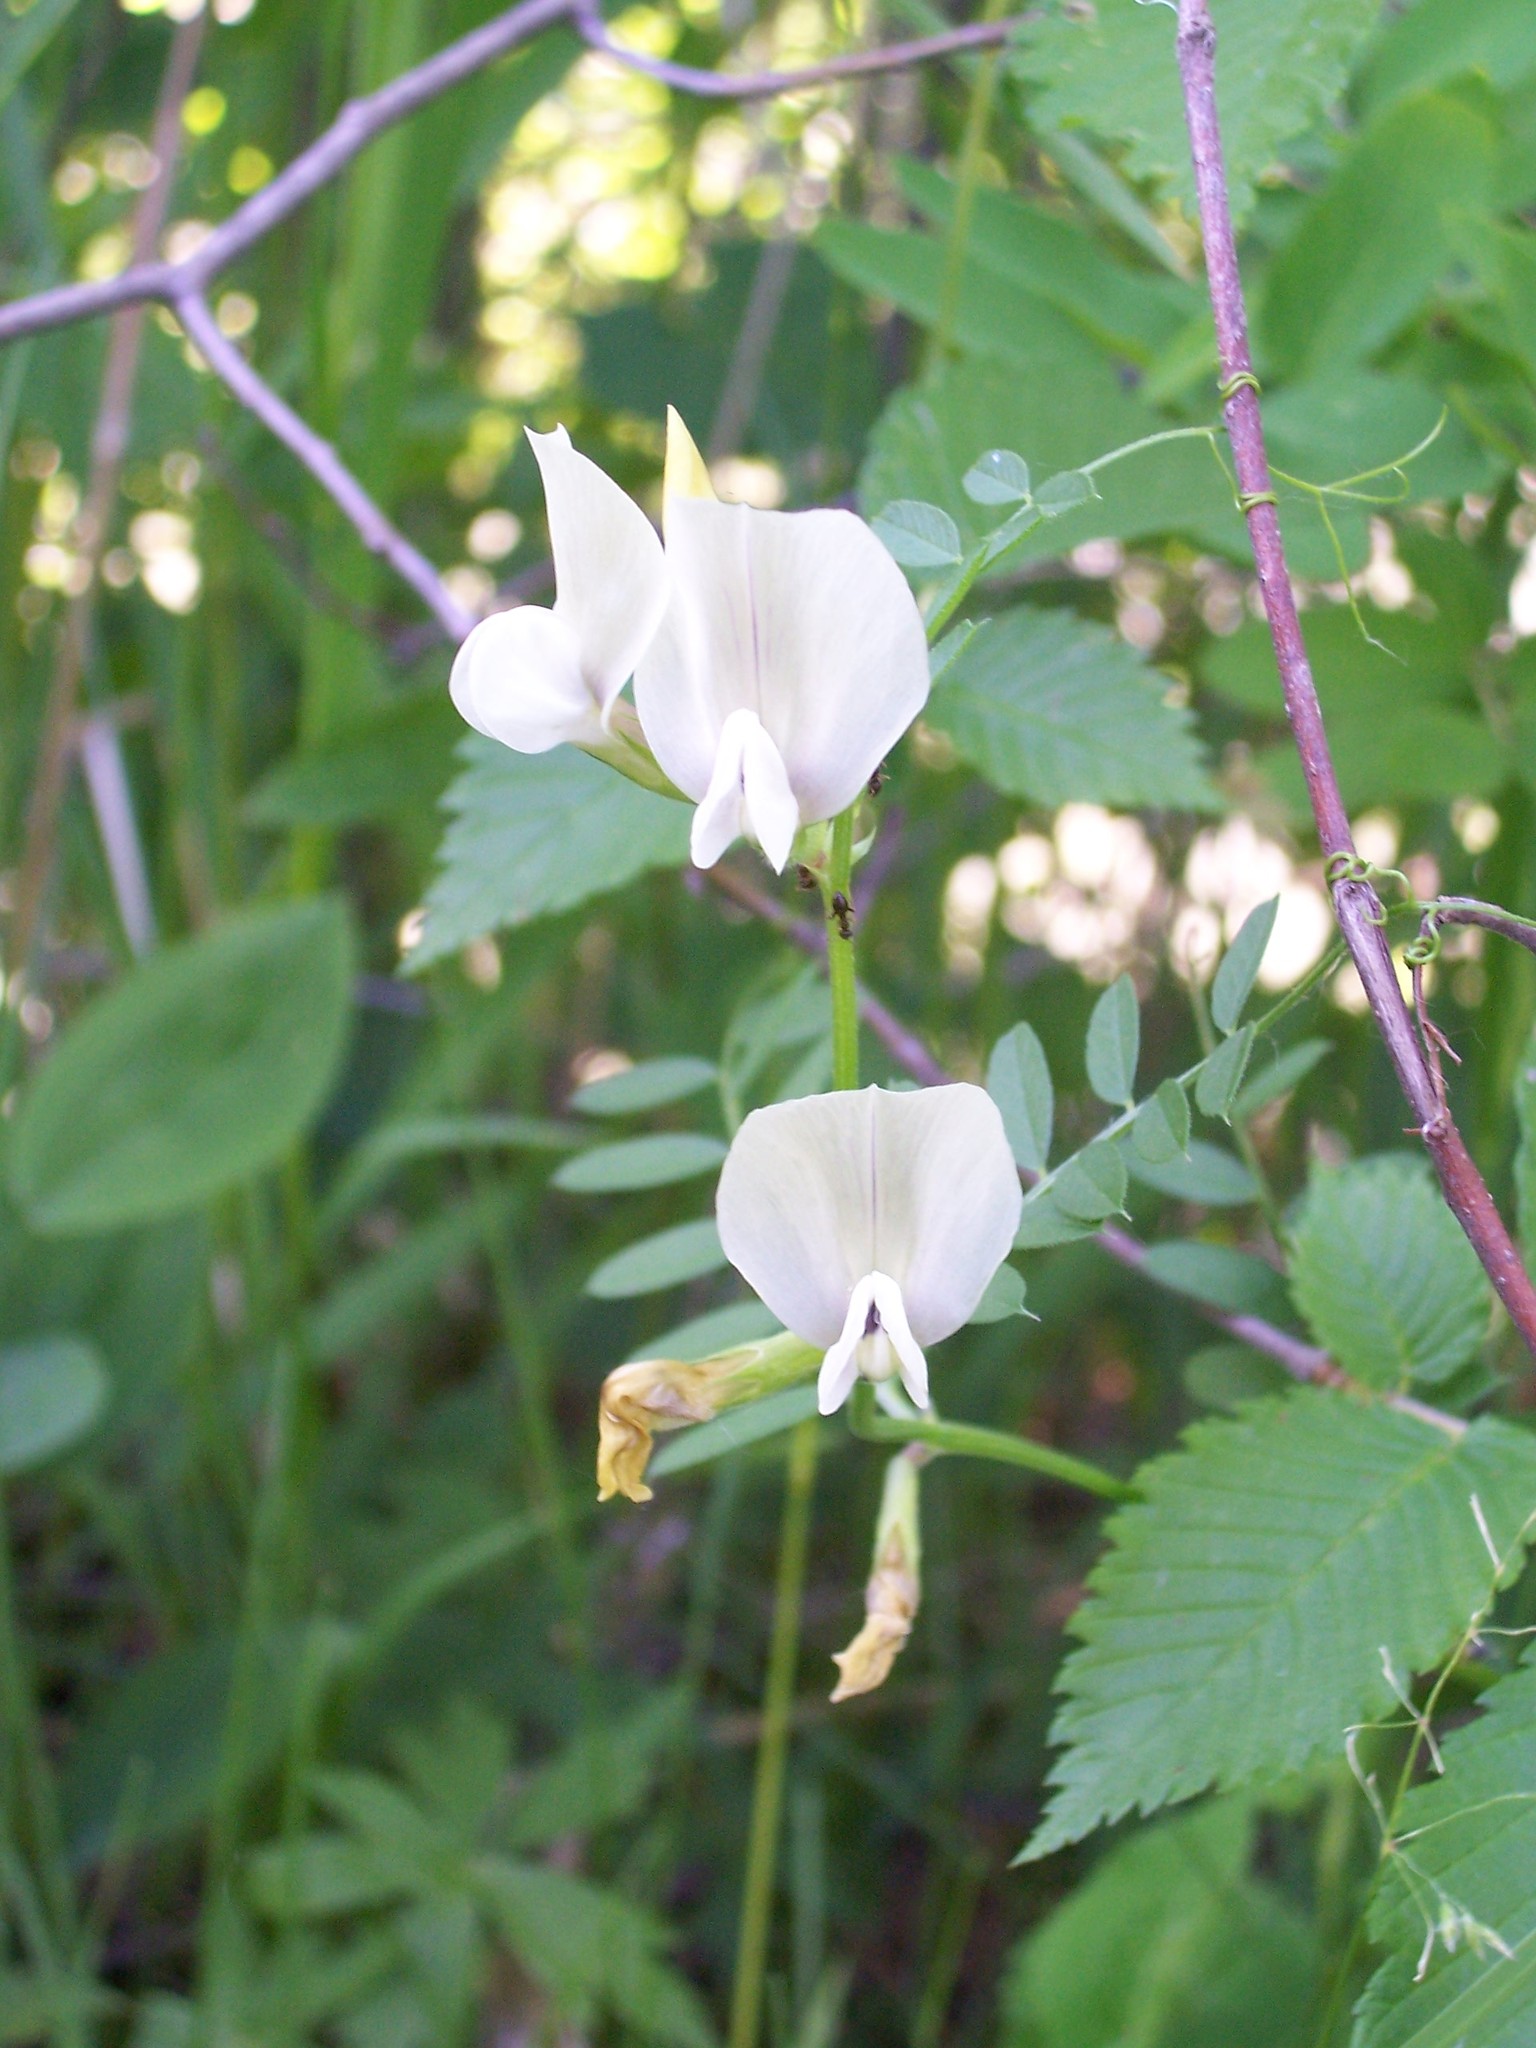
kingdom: Plantae
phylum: Tracheophyta
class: Magnoliopsida
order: Fabales
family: Fabaceae
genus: Vicia
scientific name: Vicia grandiflora
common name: Large yellow vetch
